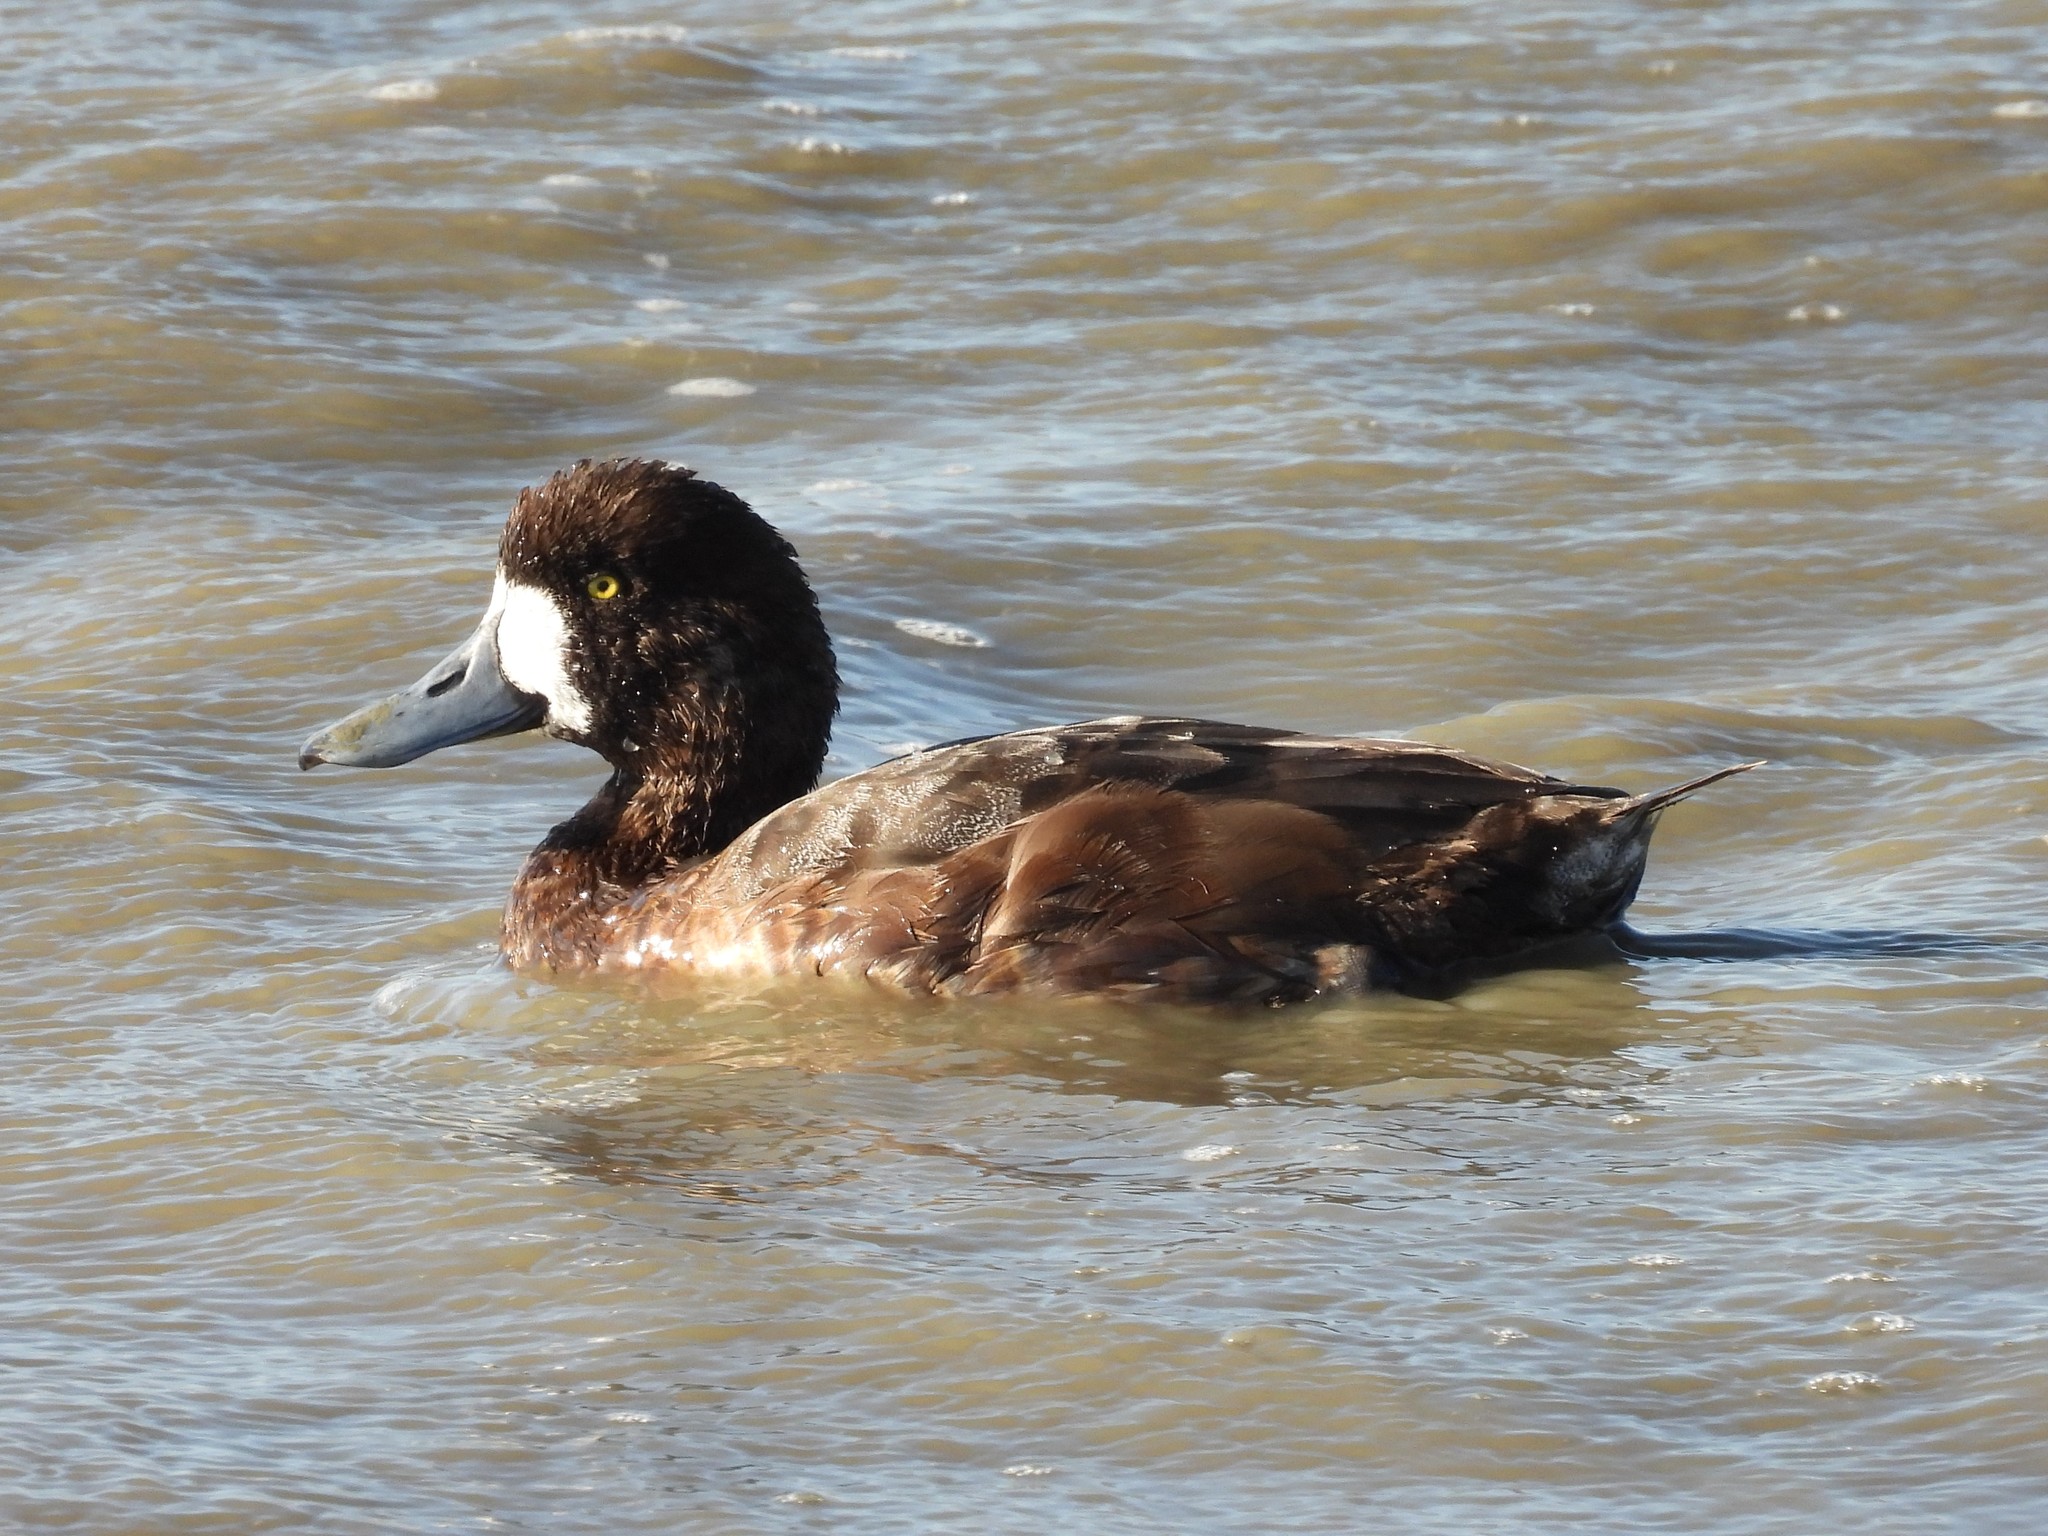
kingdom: Animalia
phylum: Chordata
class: Aves
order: Anseriformes
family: Anatidae
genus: Aythya
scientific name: Aythya marila
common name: Greater scaup
